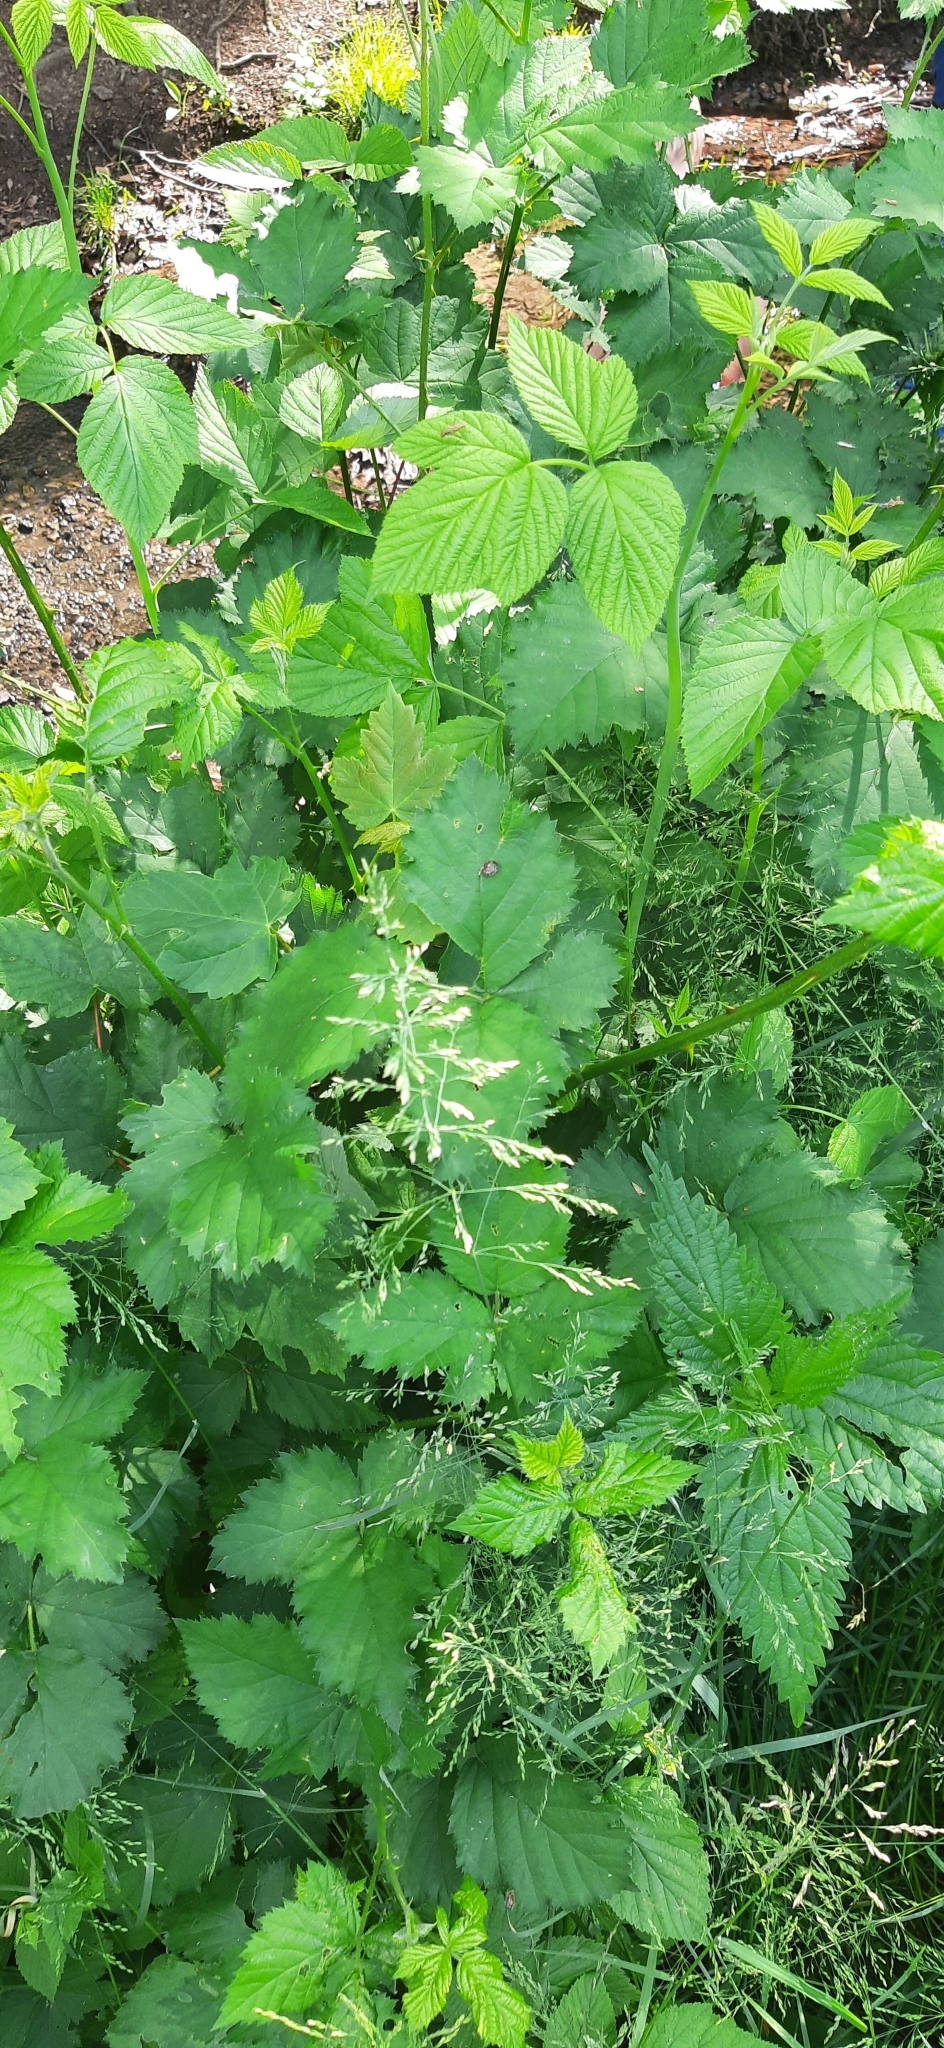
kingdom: Animalia
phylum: Arthropoda
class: Insecta
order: Hymenoptera
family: Apidae
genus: Bombus
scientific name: Bombus hypnorum
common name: New garden bumblebee
